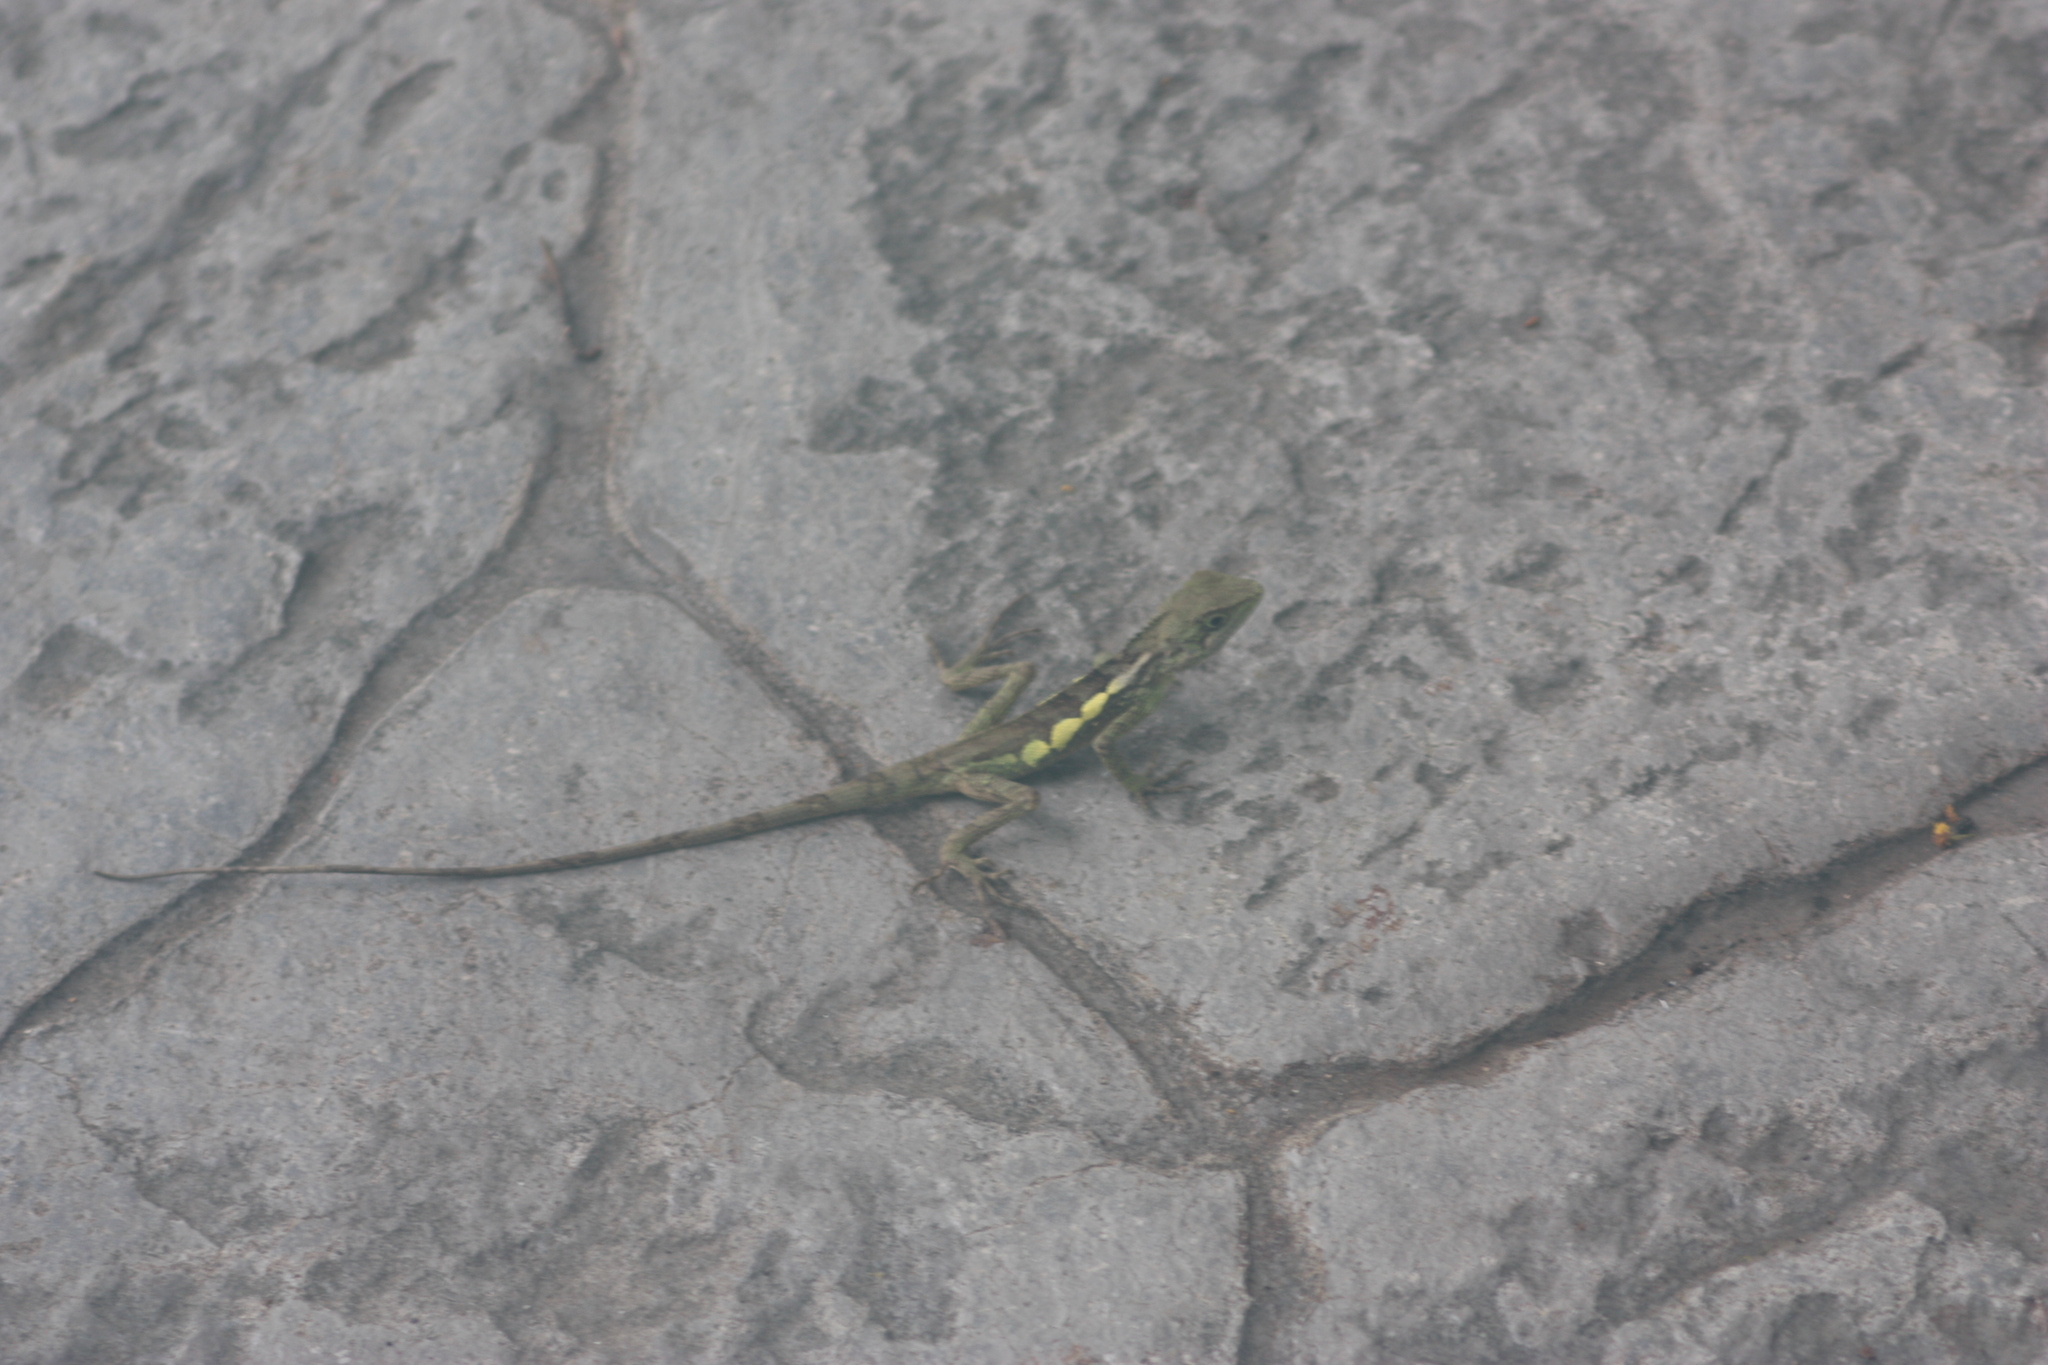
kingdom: Animalia
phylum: Chordata
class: Squamata
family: Agamidae
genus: Diploderma
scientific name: Diploderma swinhonis
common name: Taiwan japalure
